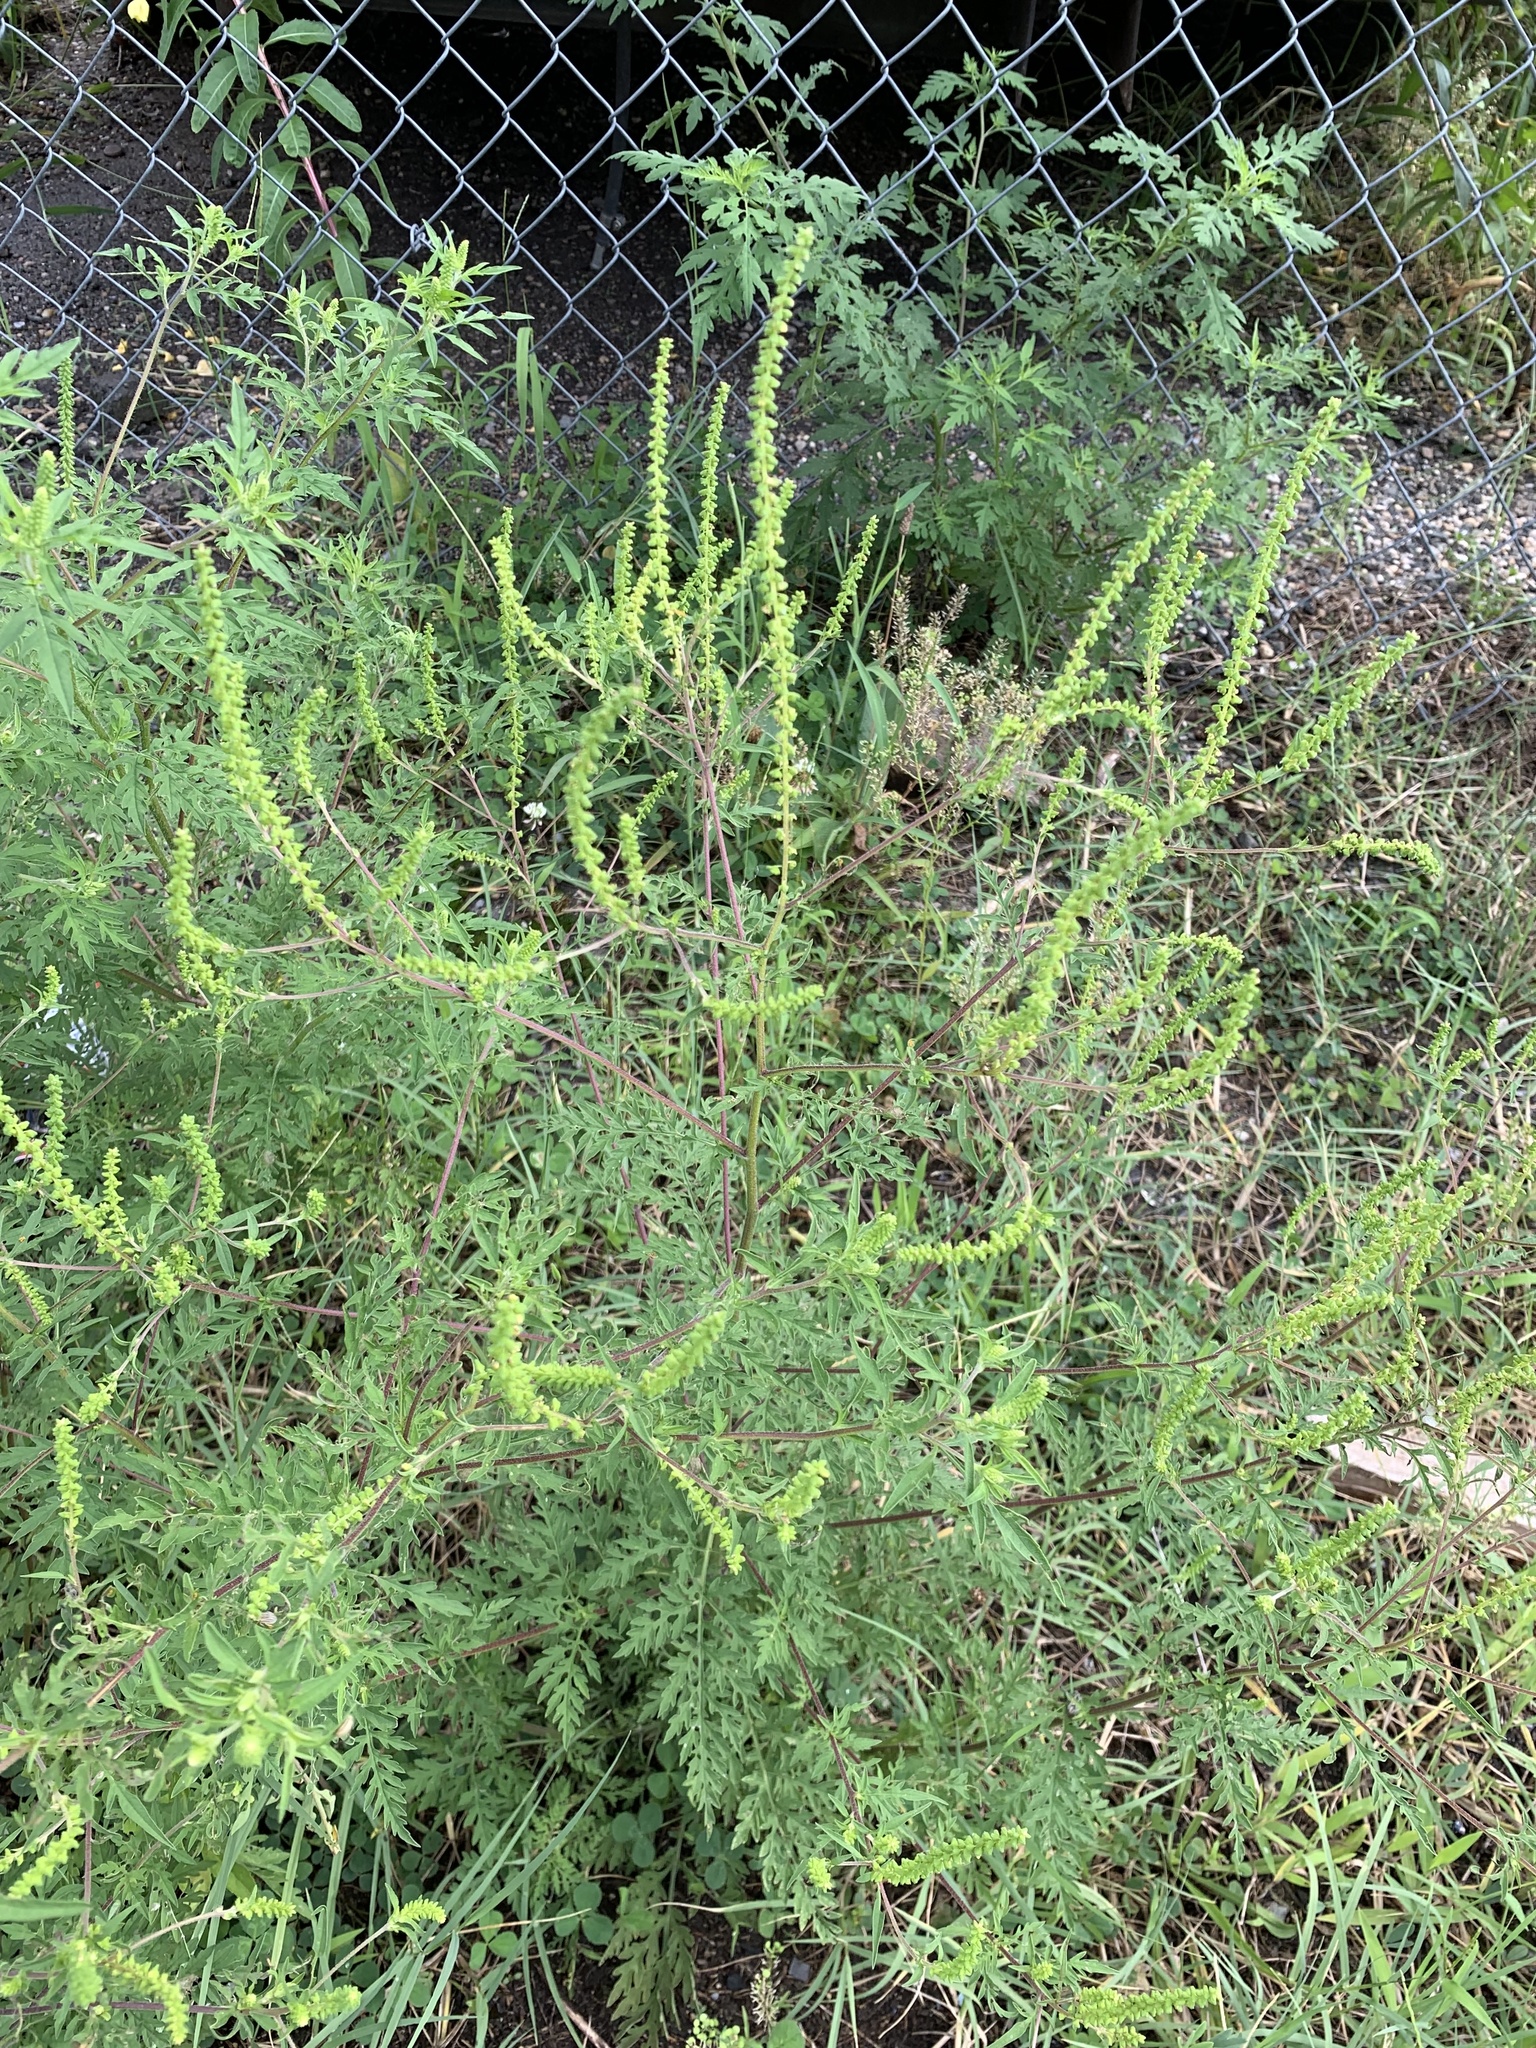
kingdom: Plantae
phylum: Tracheophyta
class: Magnoliopsida
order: Asterales
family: Asteraceae
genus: Ambrosia
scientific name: Ambrosia artemisiifolia
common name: Annual ragweed
